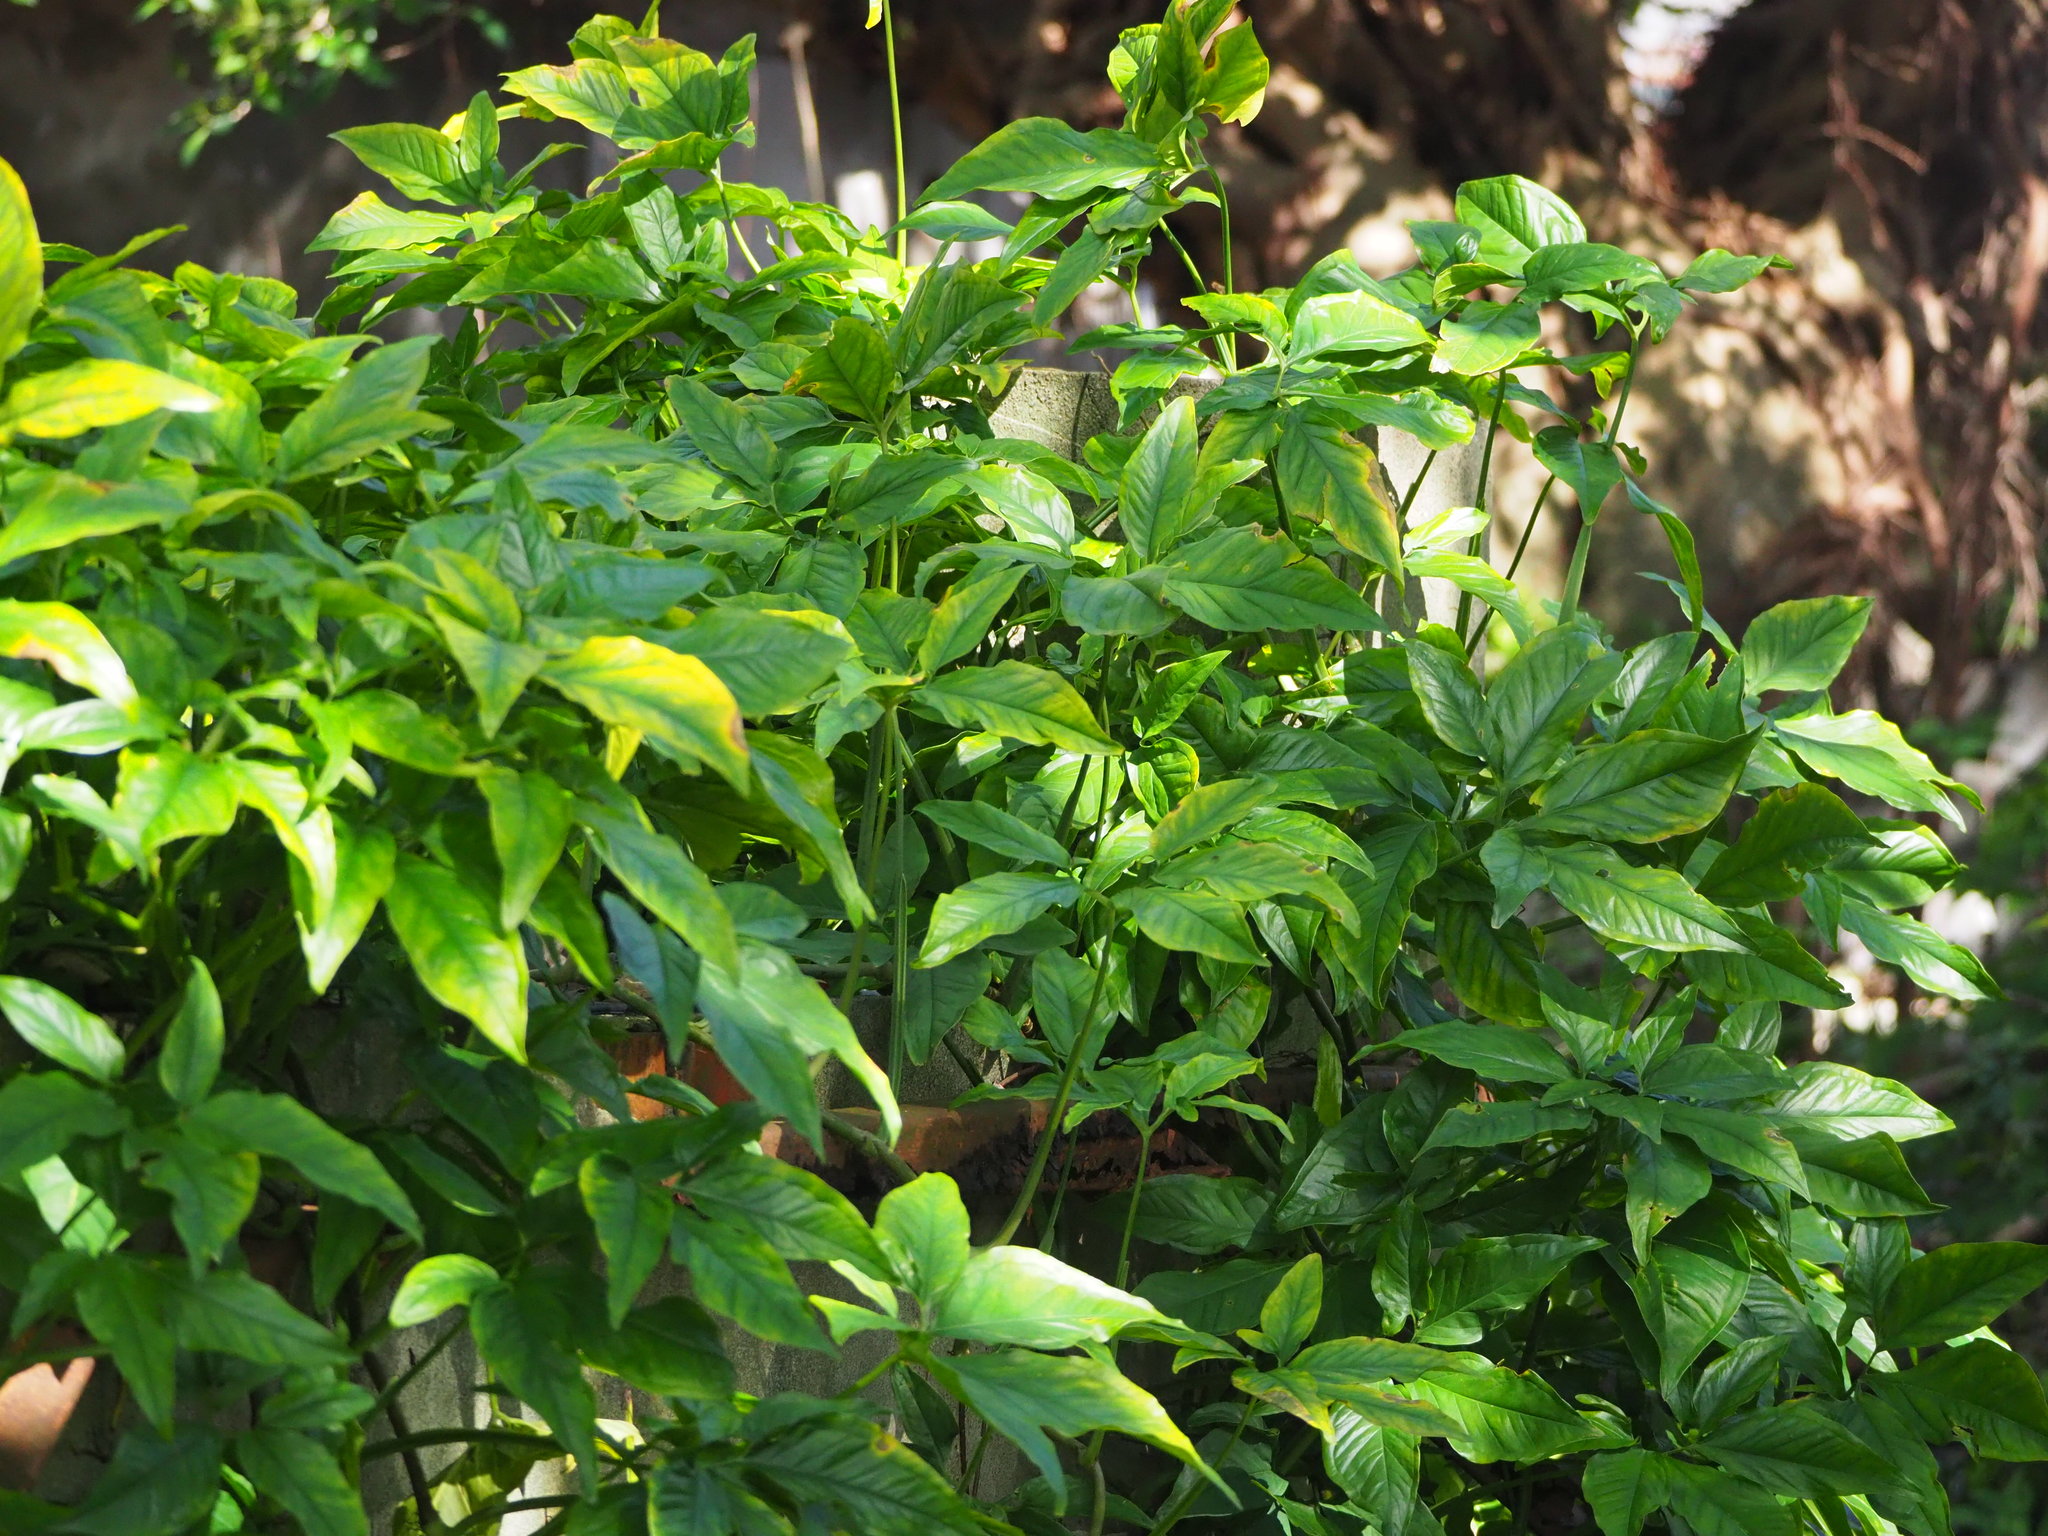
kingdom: Plantae
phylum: Tracheophyta
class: Liliopsida
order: Alismatales
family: Araceae
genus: Syngonium
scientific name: Syngonium angustatum
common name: Fivefingers
